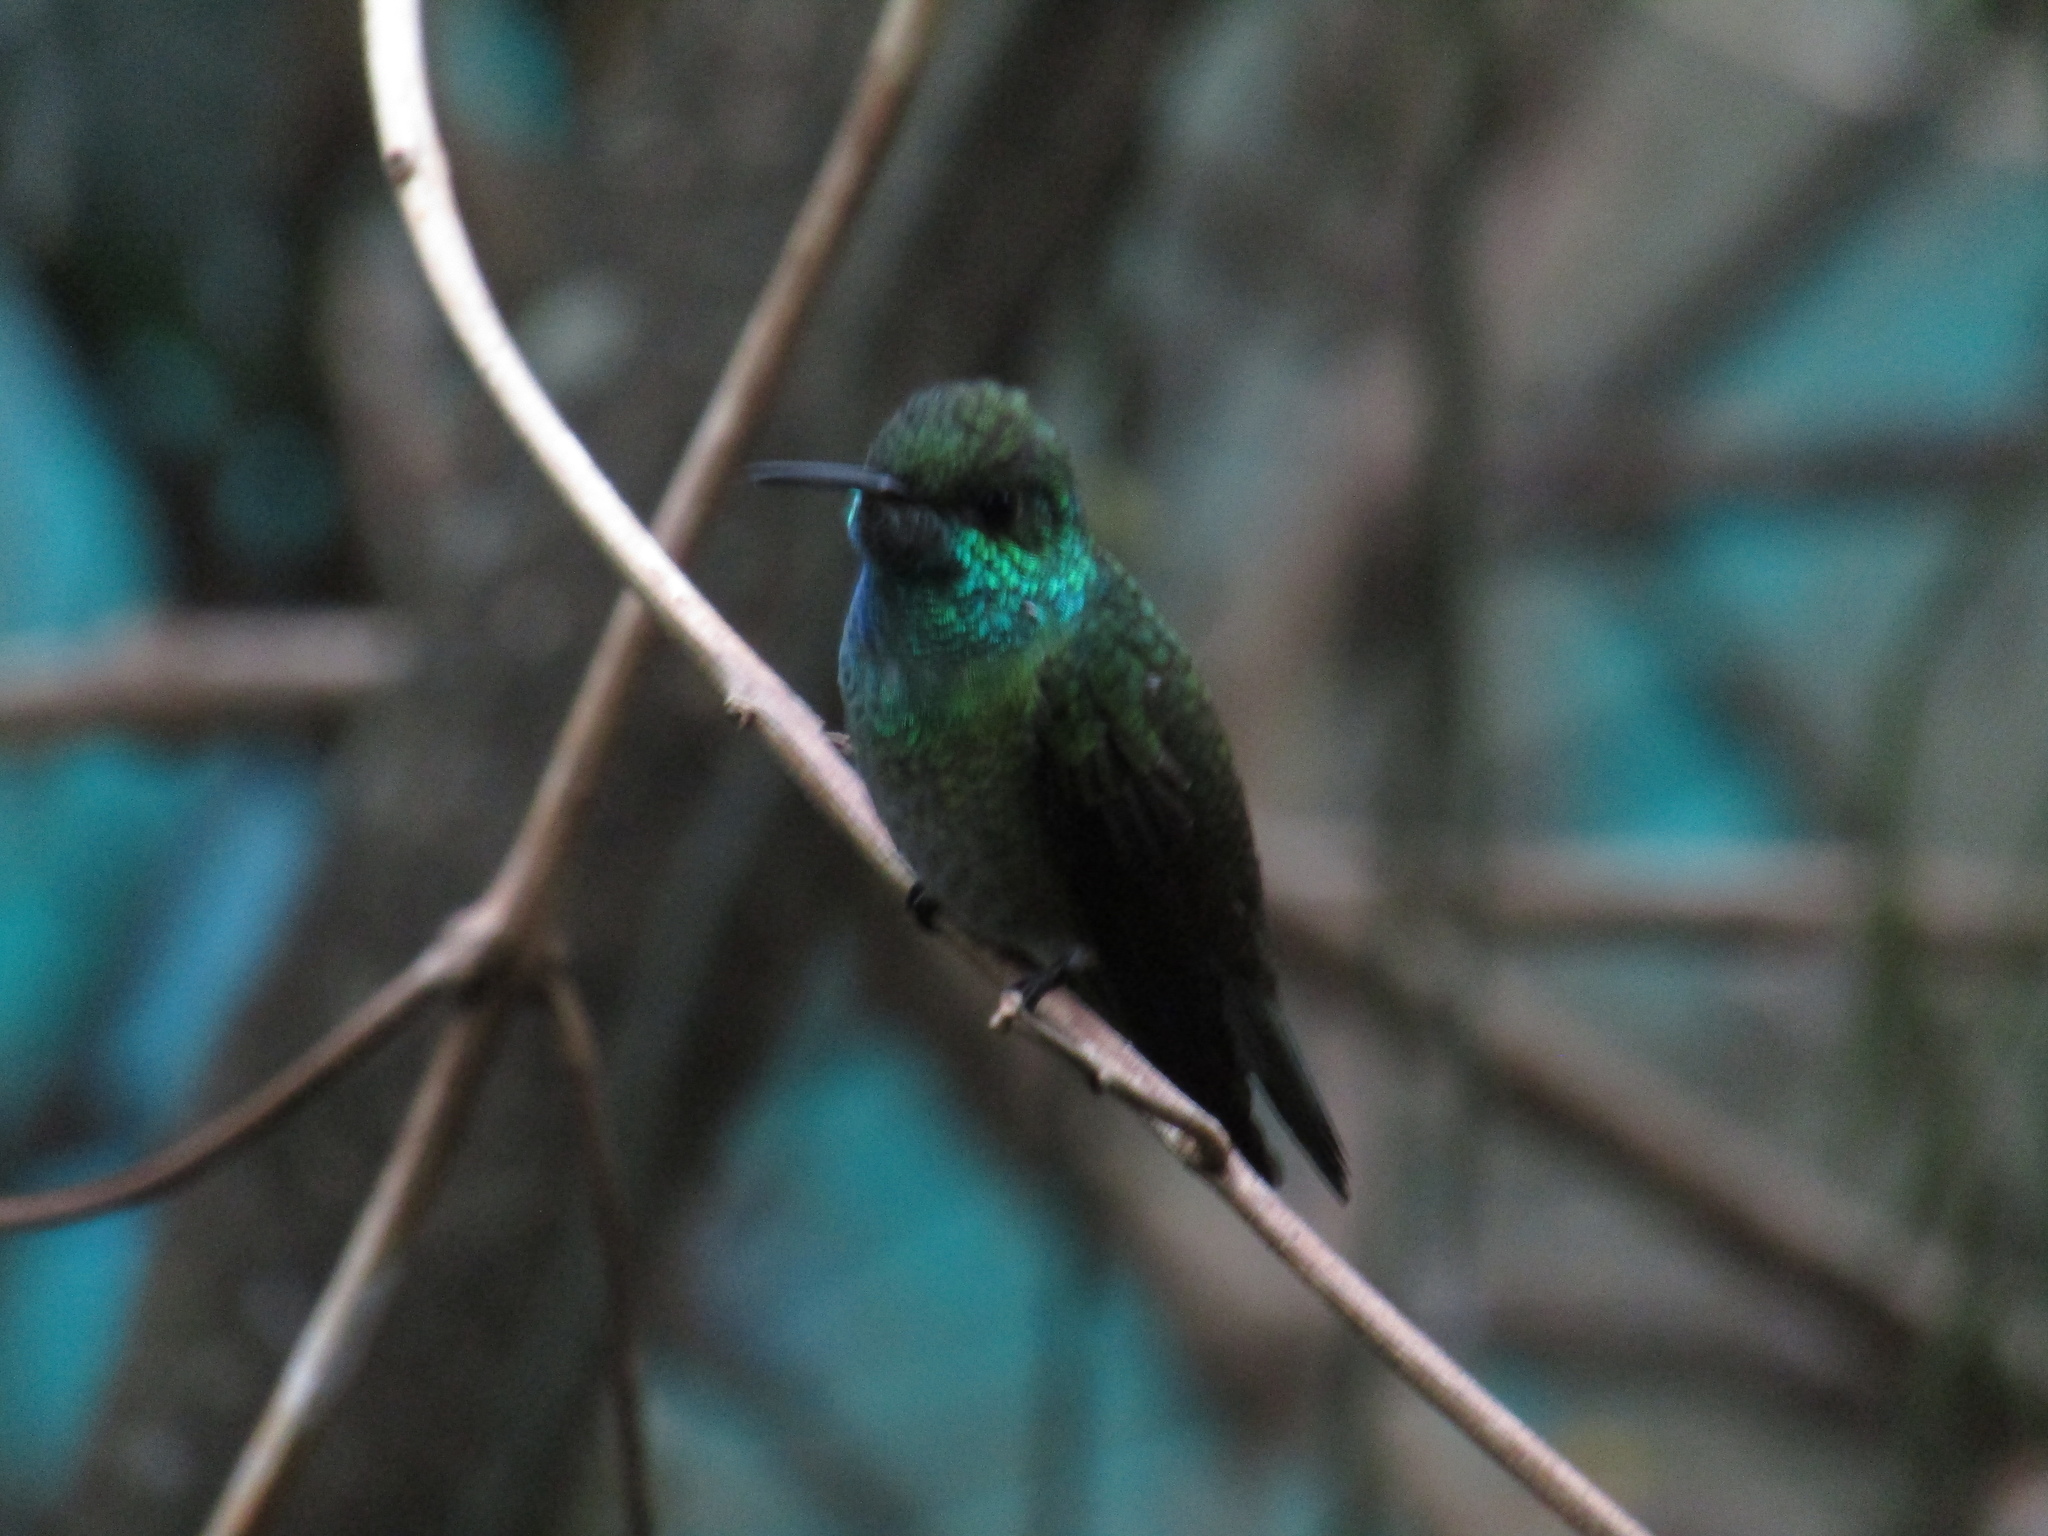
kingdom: Animalia
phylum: Chordata
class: Aves
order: Apodiformes
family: Trochilidae
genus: Chrysuronia
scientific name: Chrysuronia versicolor
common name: Versicolored emerald
